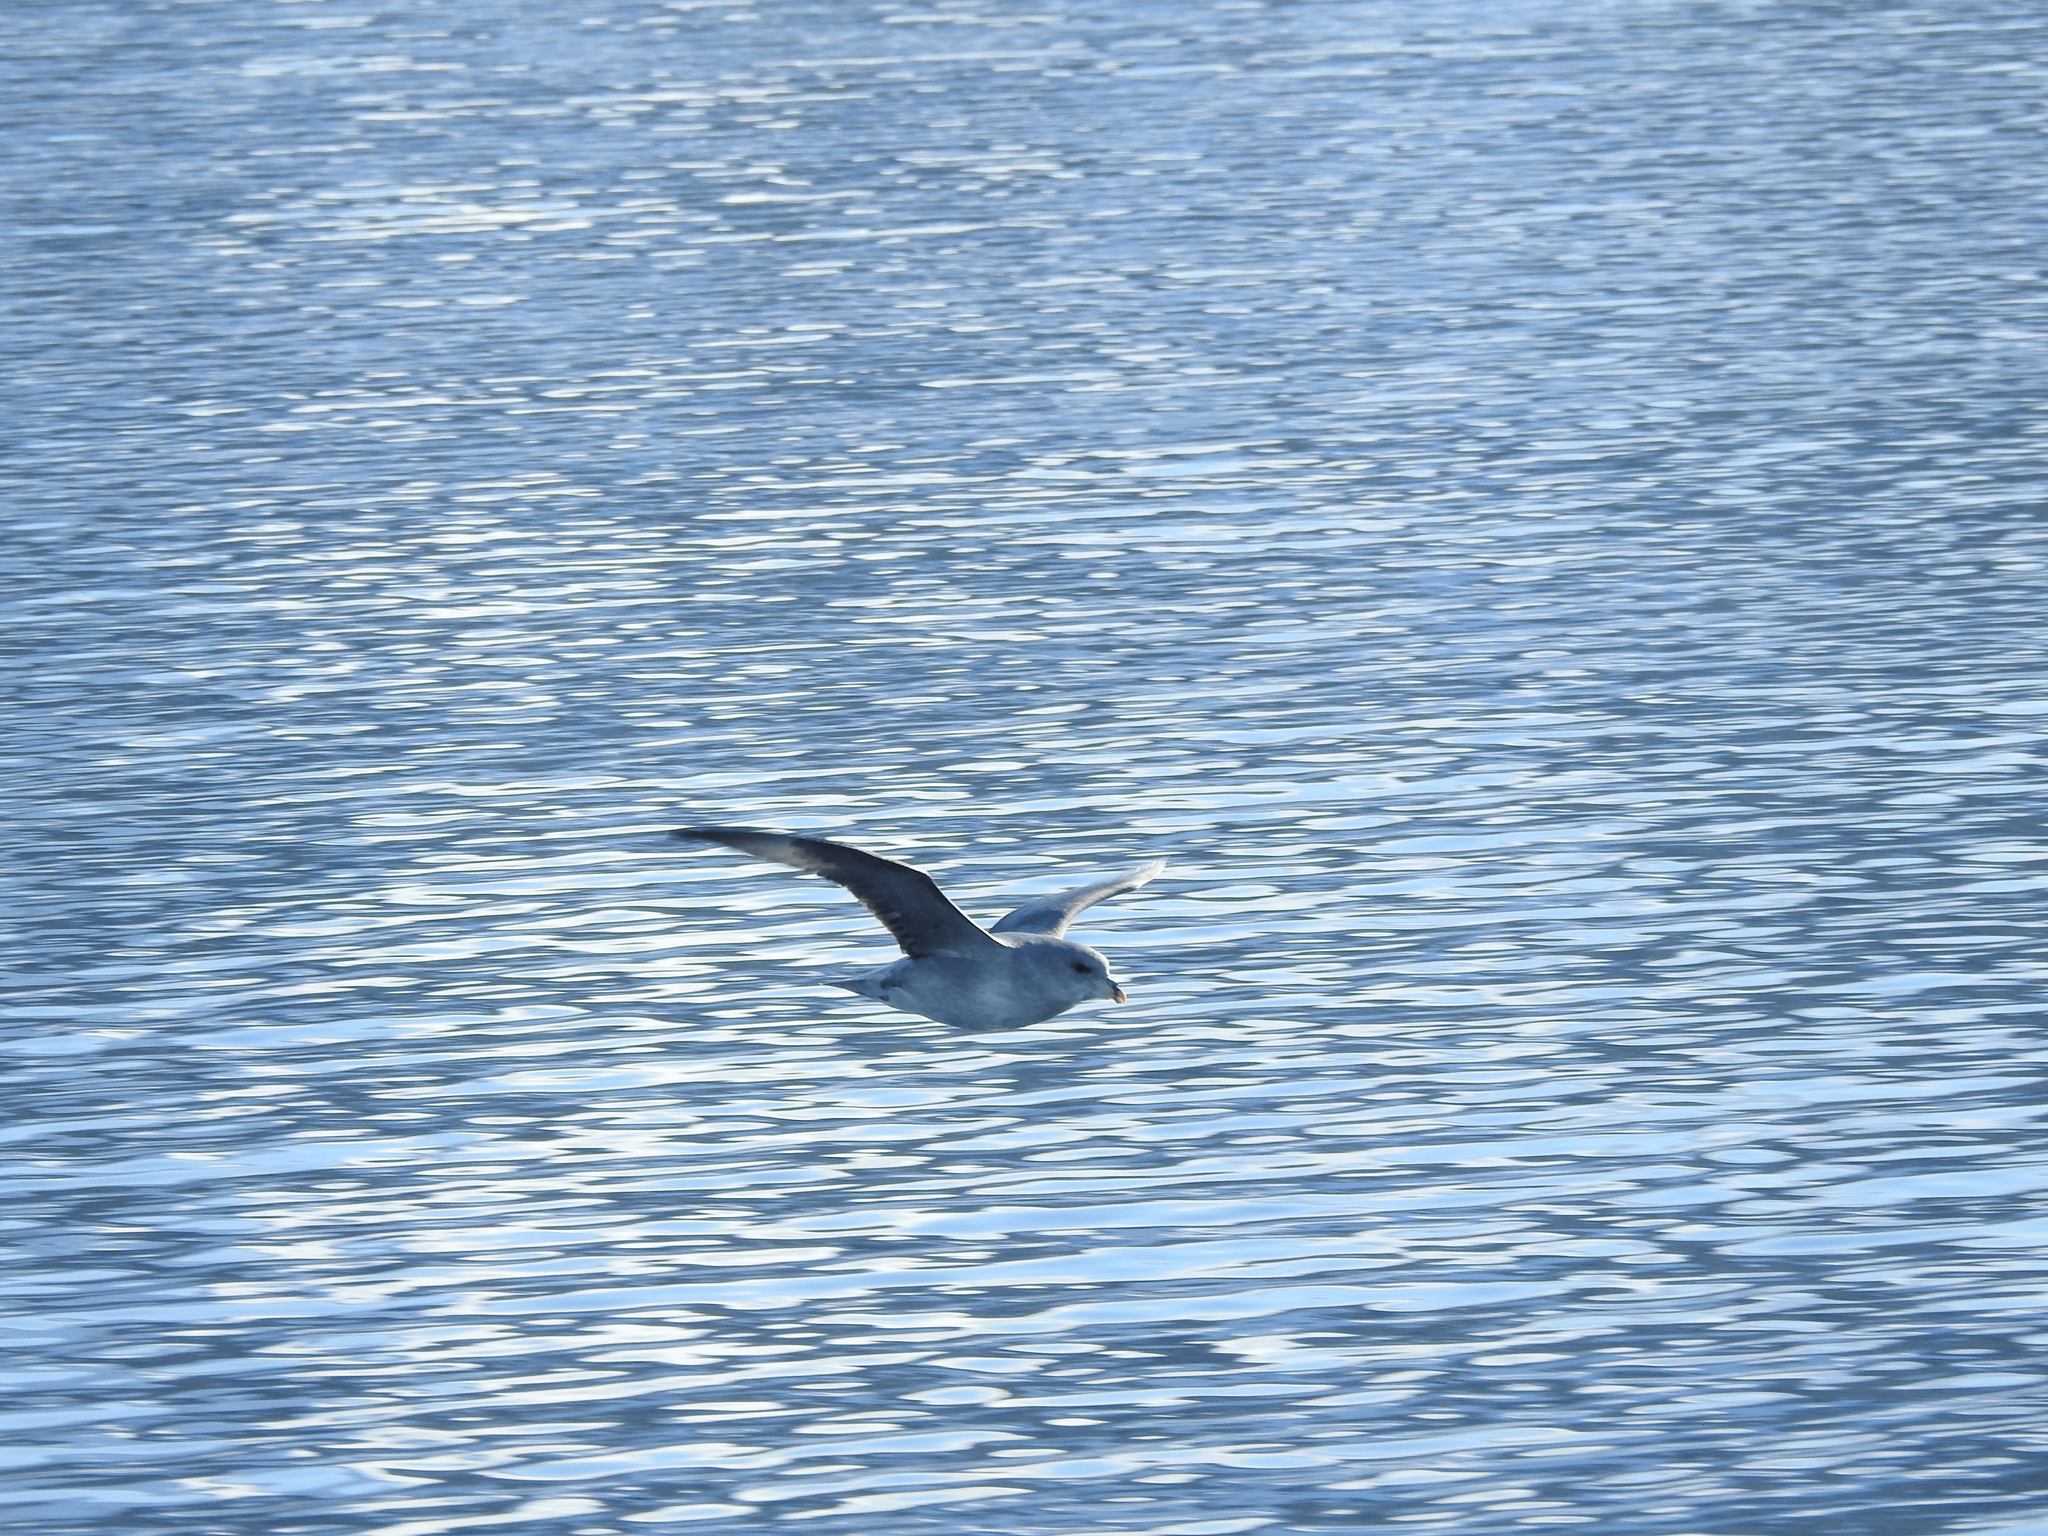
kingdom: Animalia
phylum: Chordata
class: Aves
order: Procellariiformes
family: Procellariidae
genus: Fulmarus
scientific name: Fulmarus glacialis
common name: Northern fulmar
